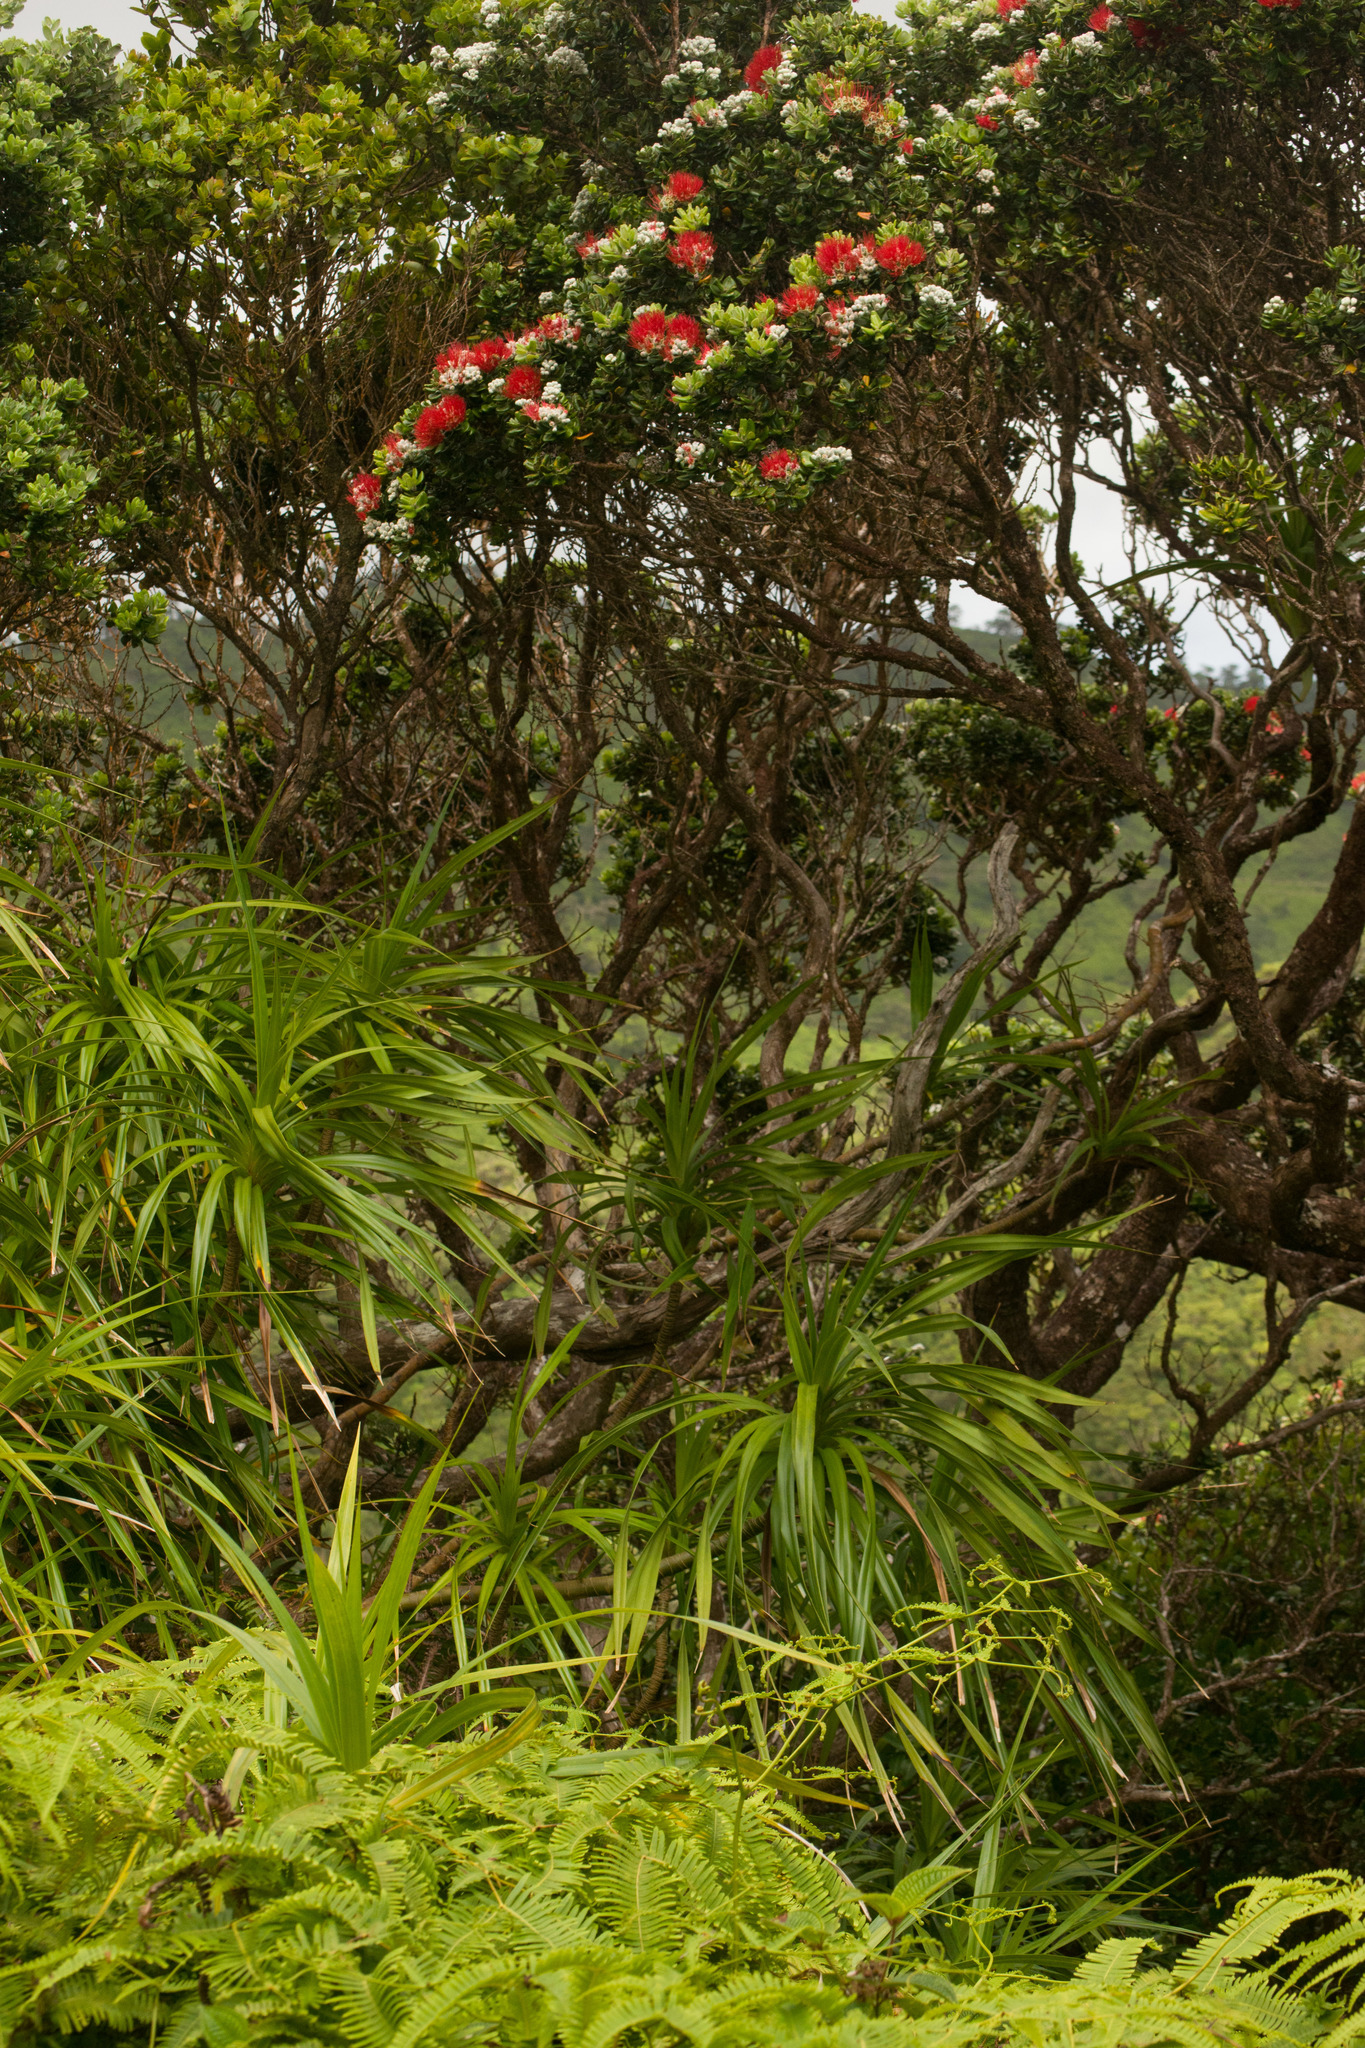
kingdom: Plantae
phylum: Tracheophyta
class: Polypodiopsida
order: Gleicheniales
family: Gleicheniaceae
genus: Dicranopteris
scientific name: Dicranopteris linearis
